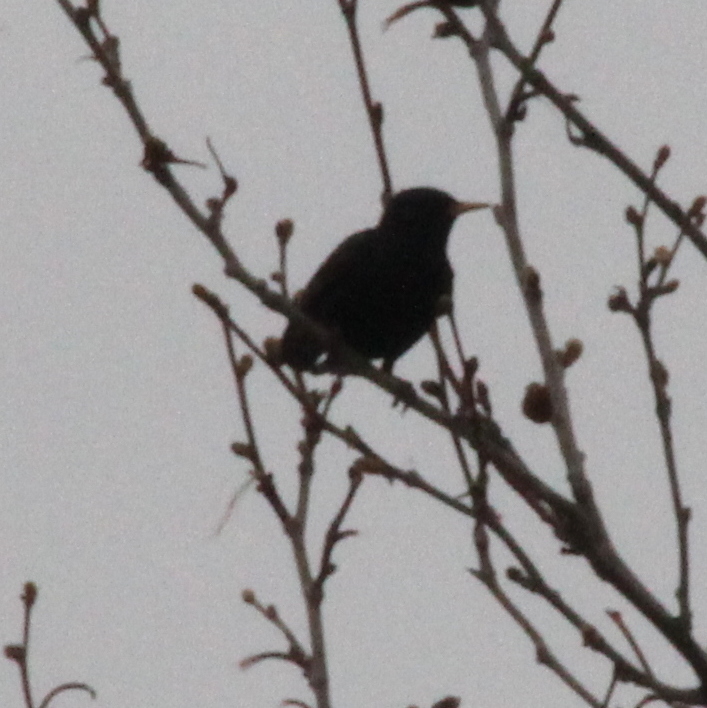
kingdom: Animalia
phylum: Chordata
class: Aves
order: Passeriformes
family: Sturnidae
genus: Sturnus
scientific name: Sturnus vulgaris
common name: Common starling
